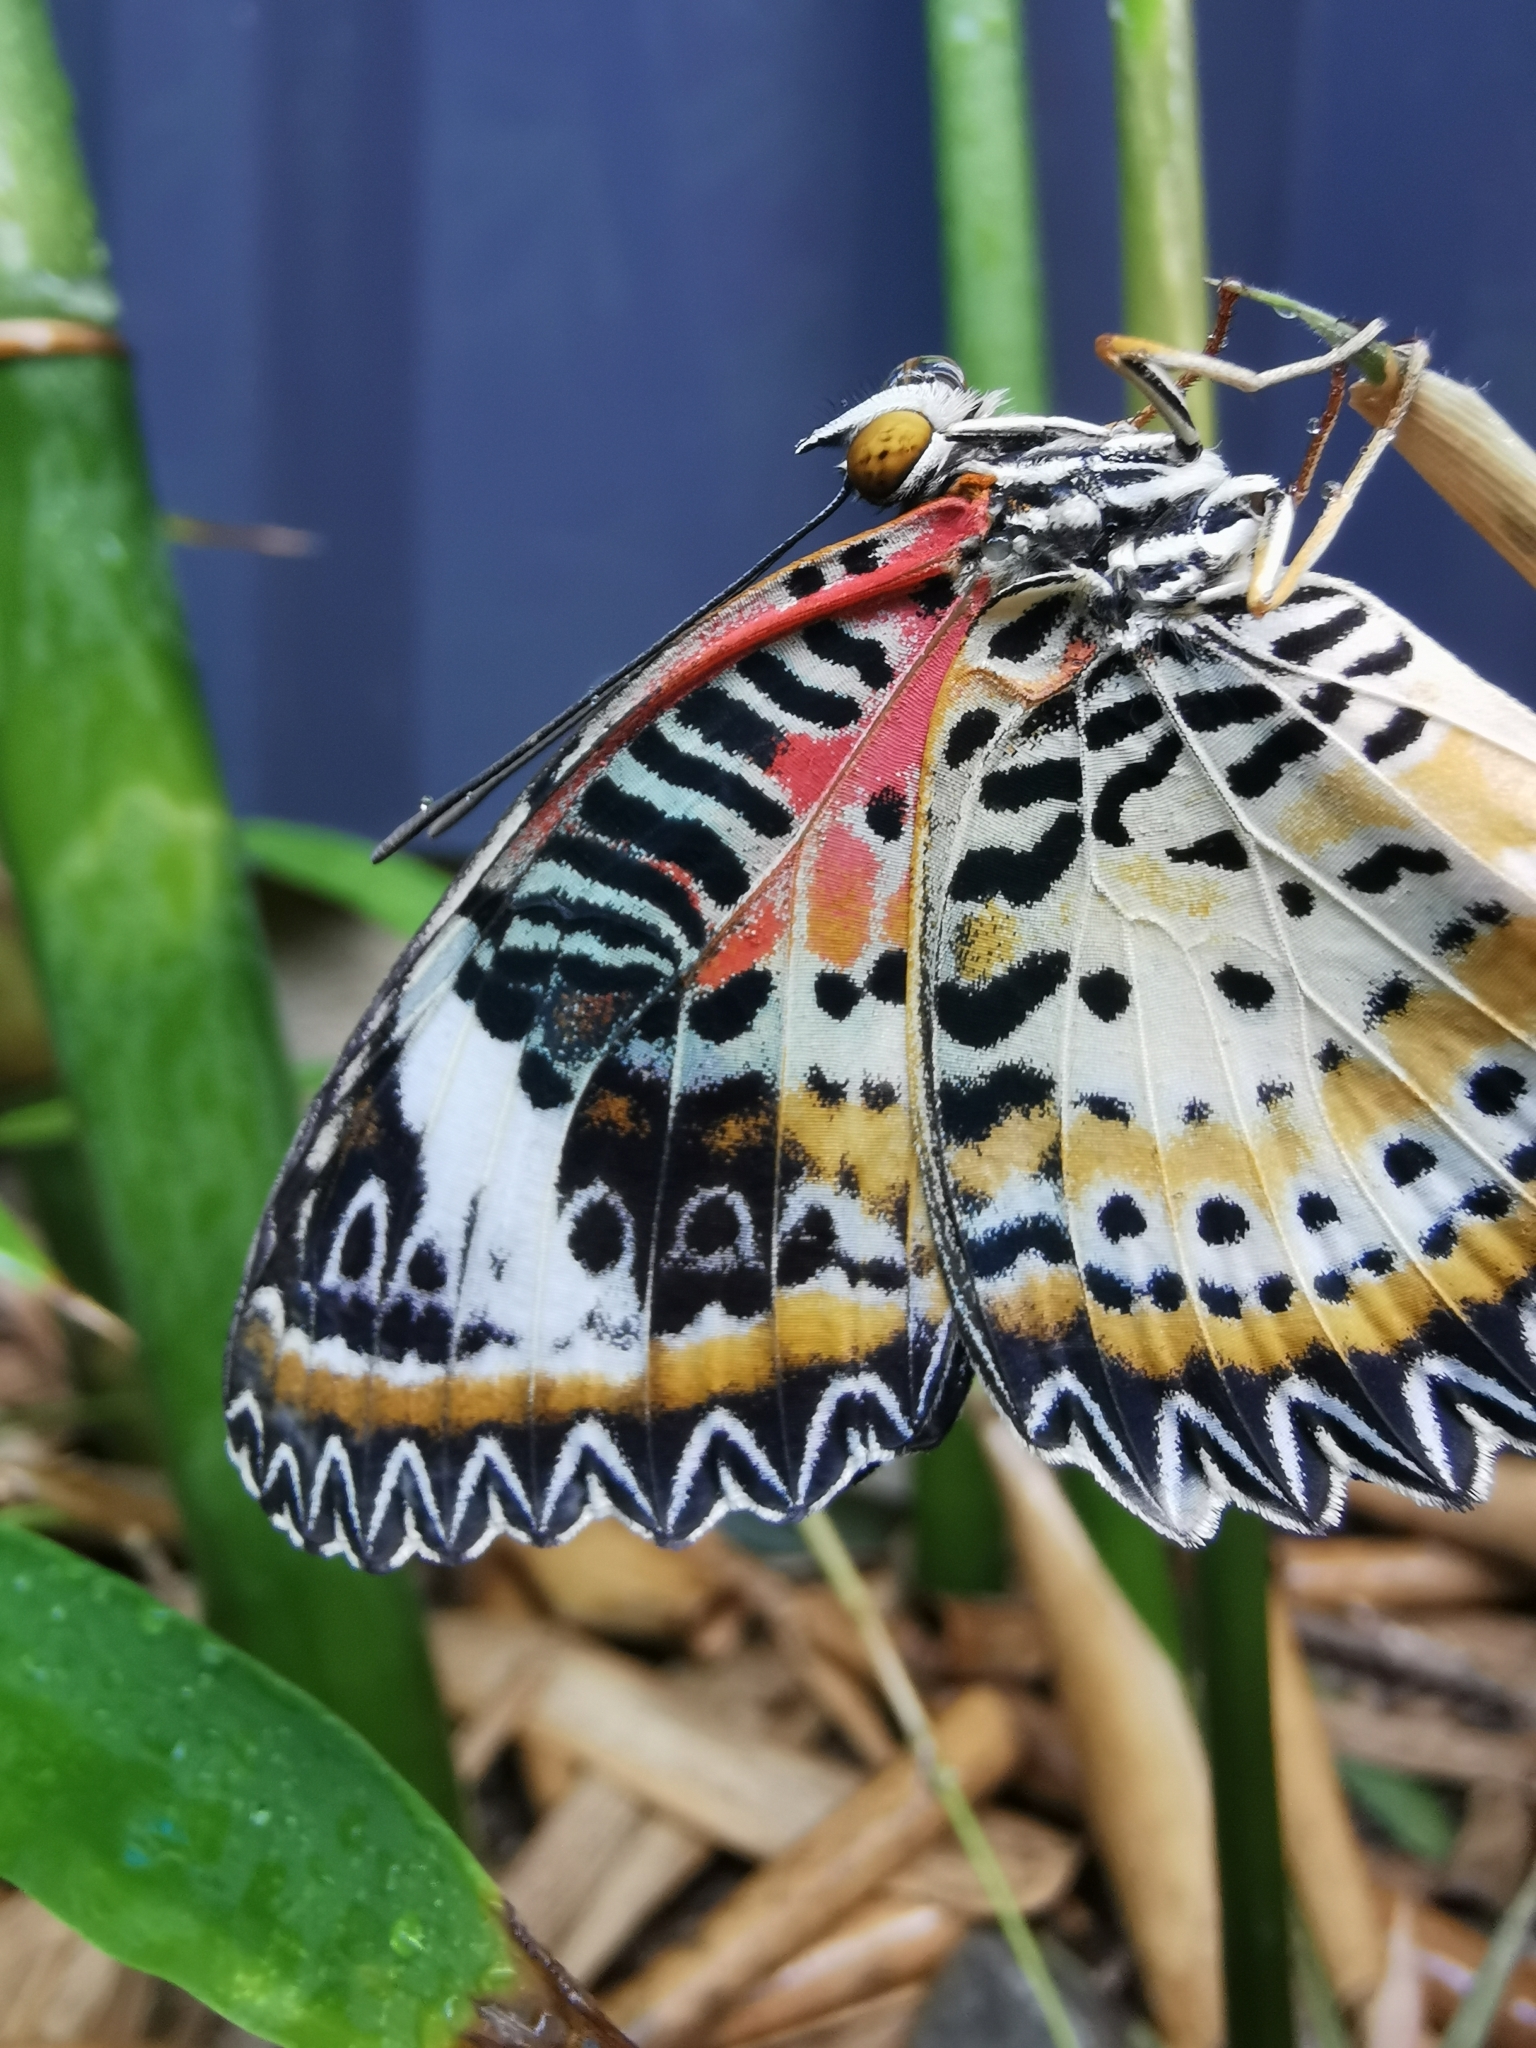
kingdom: Animalia
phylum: Arthropoda
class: Insecta
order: Lepidoptera
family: Nymphalidae
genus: Cethosia
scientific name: Cethosia cyane
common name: Leopard lacewing butterfly
